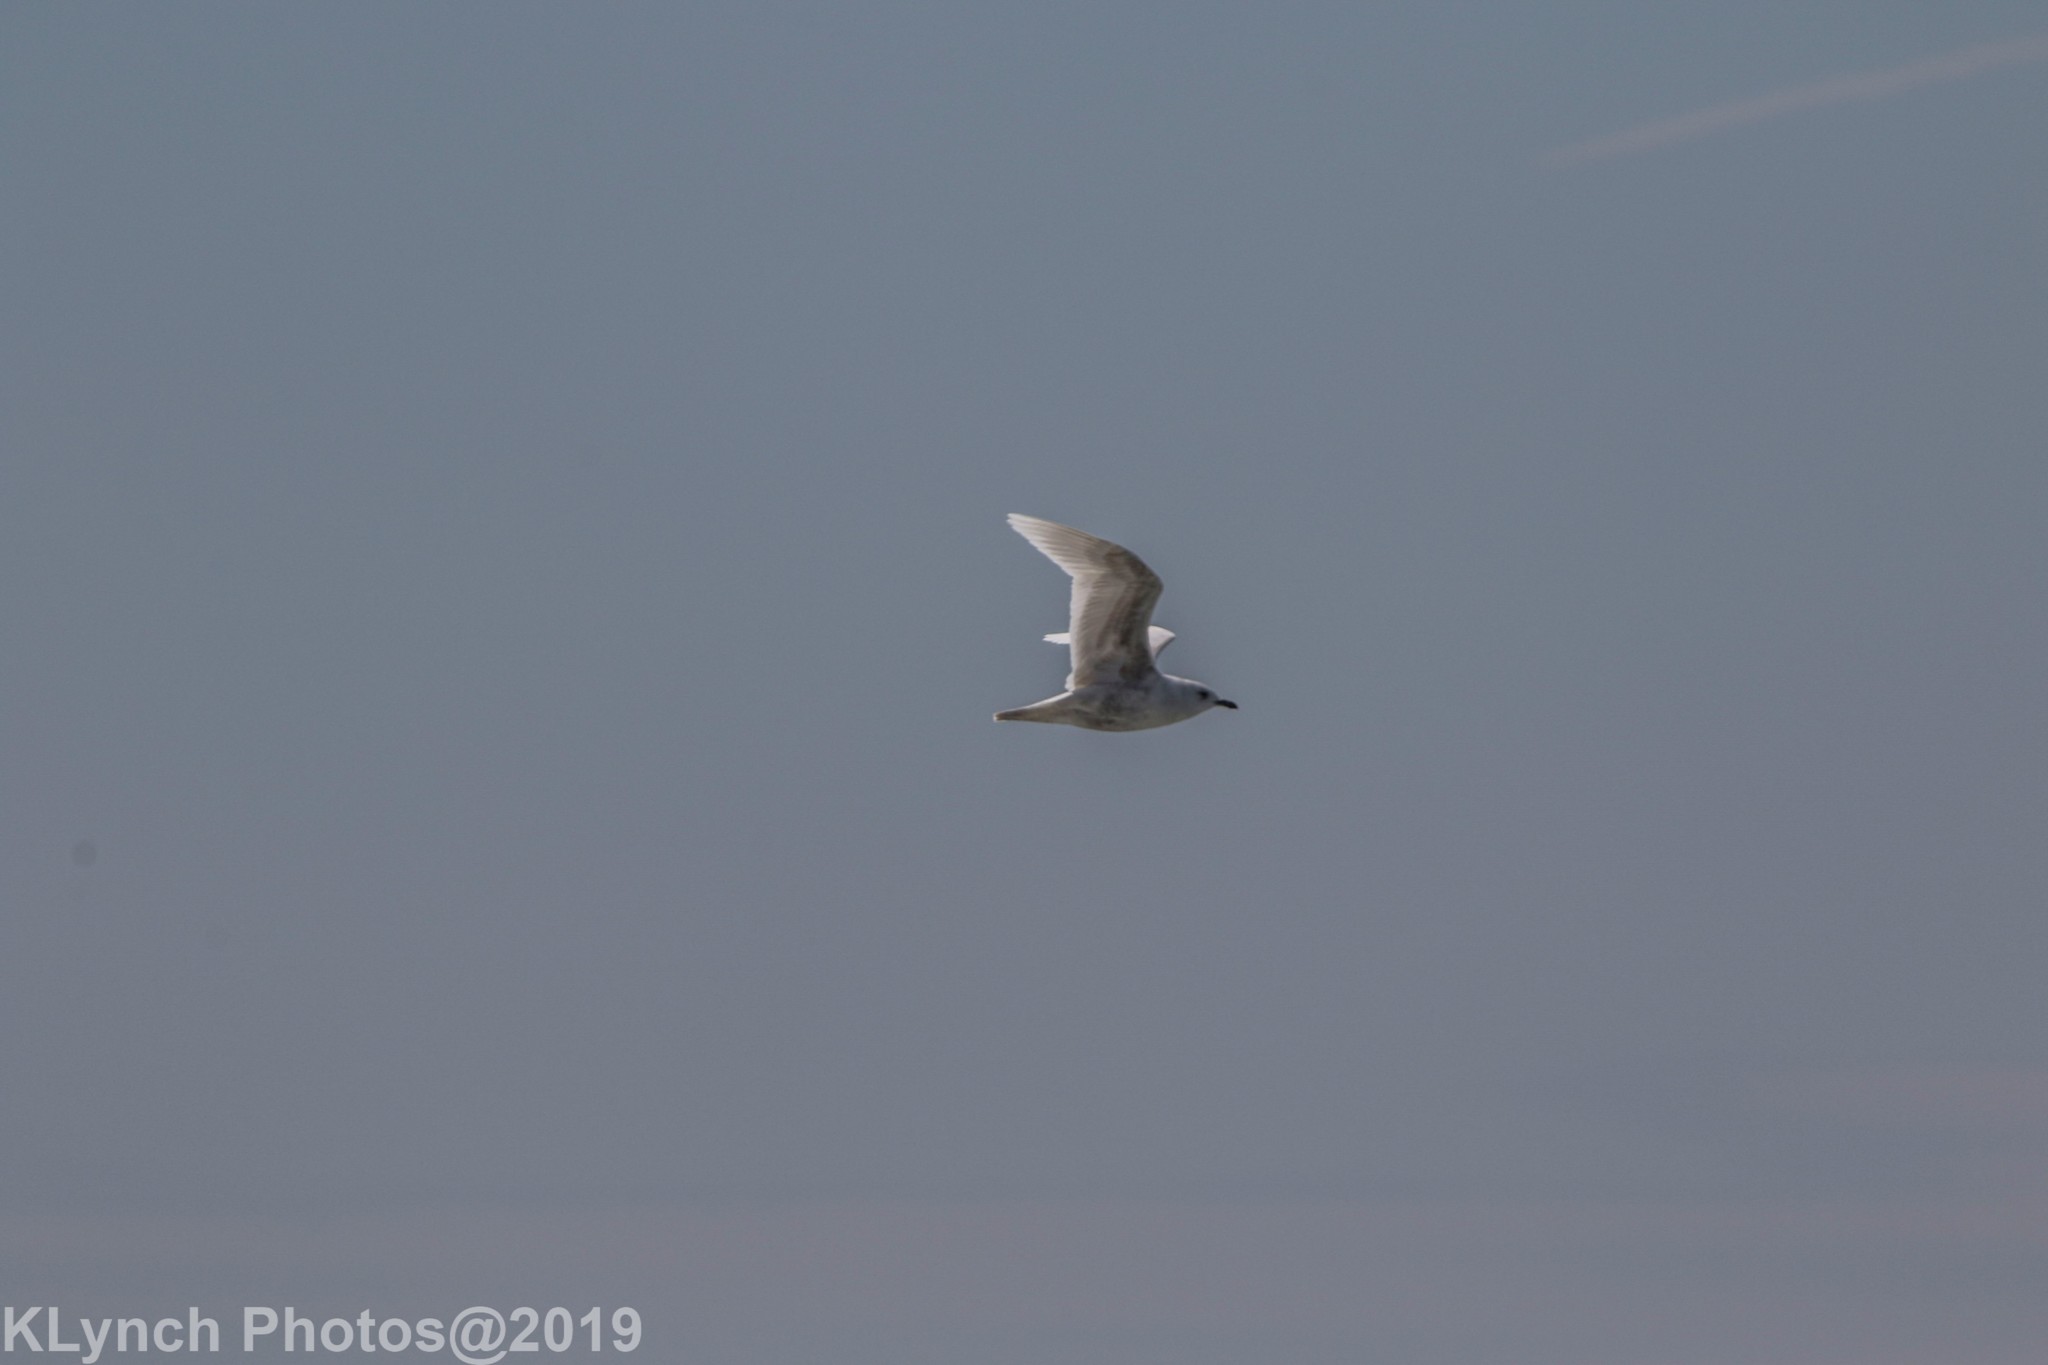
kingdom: Animalia
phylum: Chordata
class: Aves
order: Charadriiformes
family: Laridae
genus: Larus
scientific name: Larus glaucoides
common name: Iceland gull
